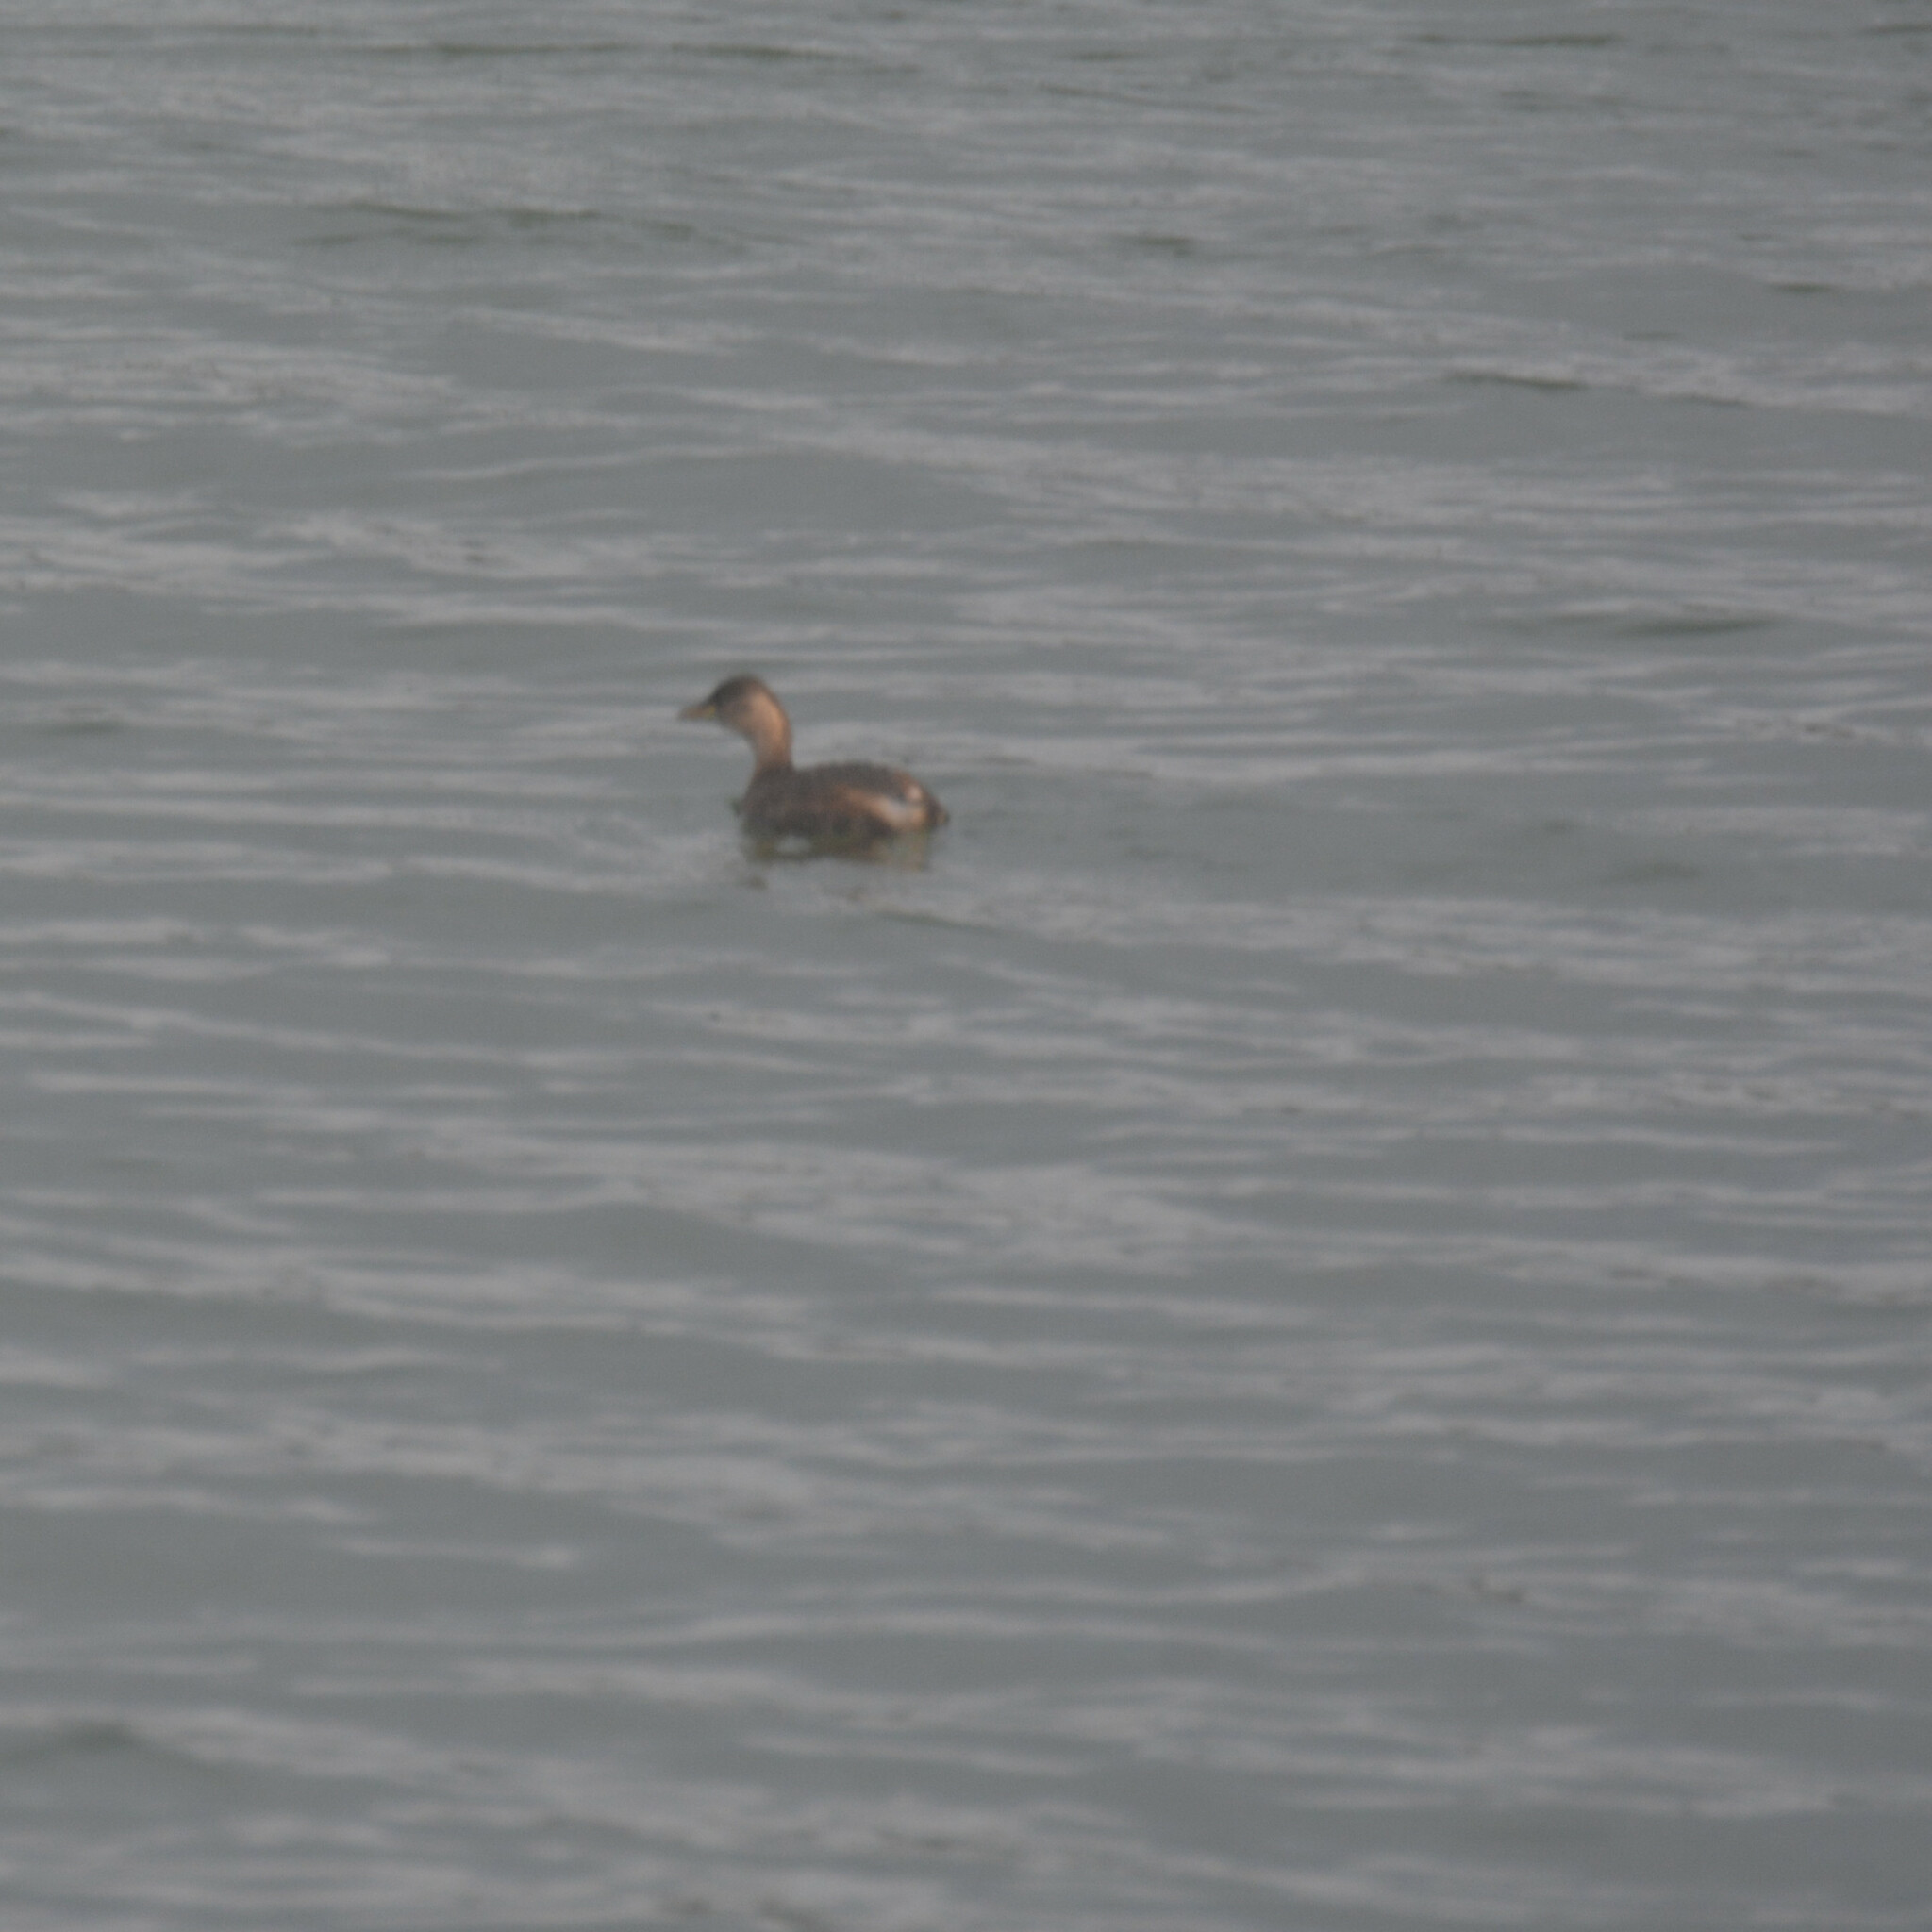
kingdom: Animalia
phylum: Chordata
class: Aves
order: Podicipediformes
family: Podicipedidae
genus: Tachybaptus
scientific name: Tachybaptus ruficollis
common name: Little grebe
